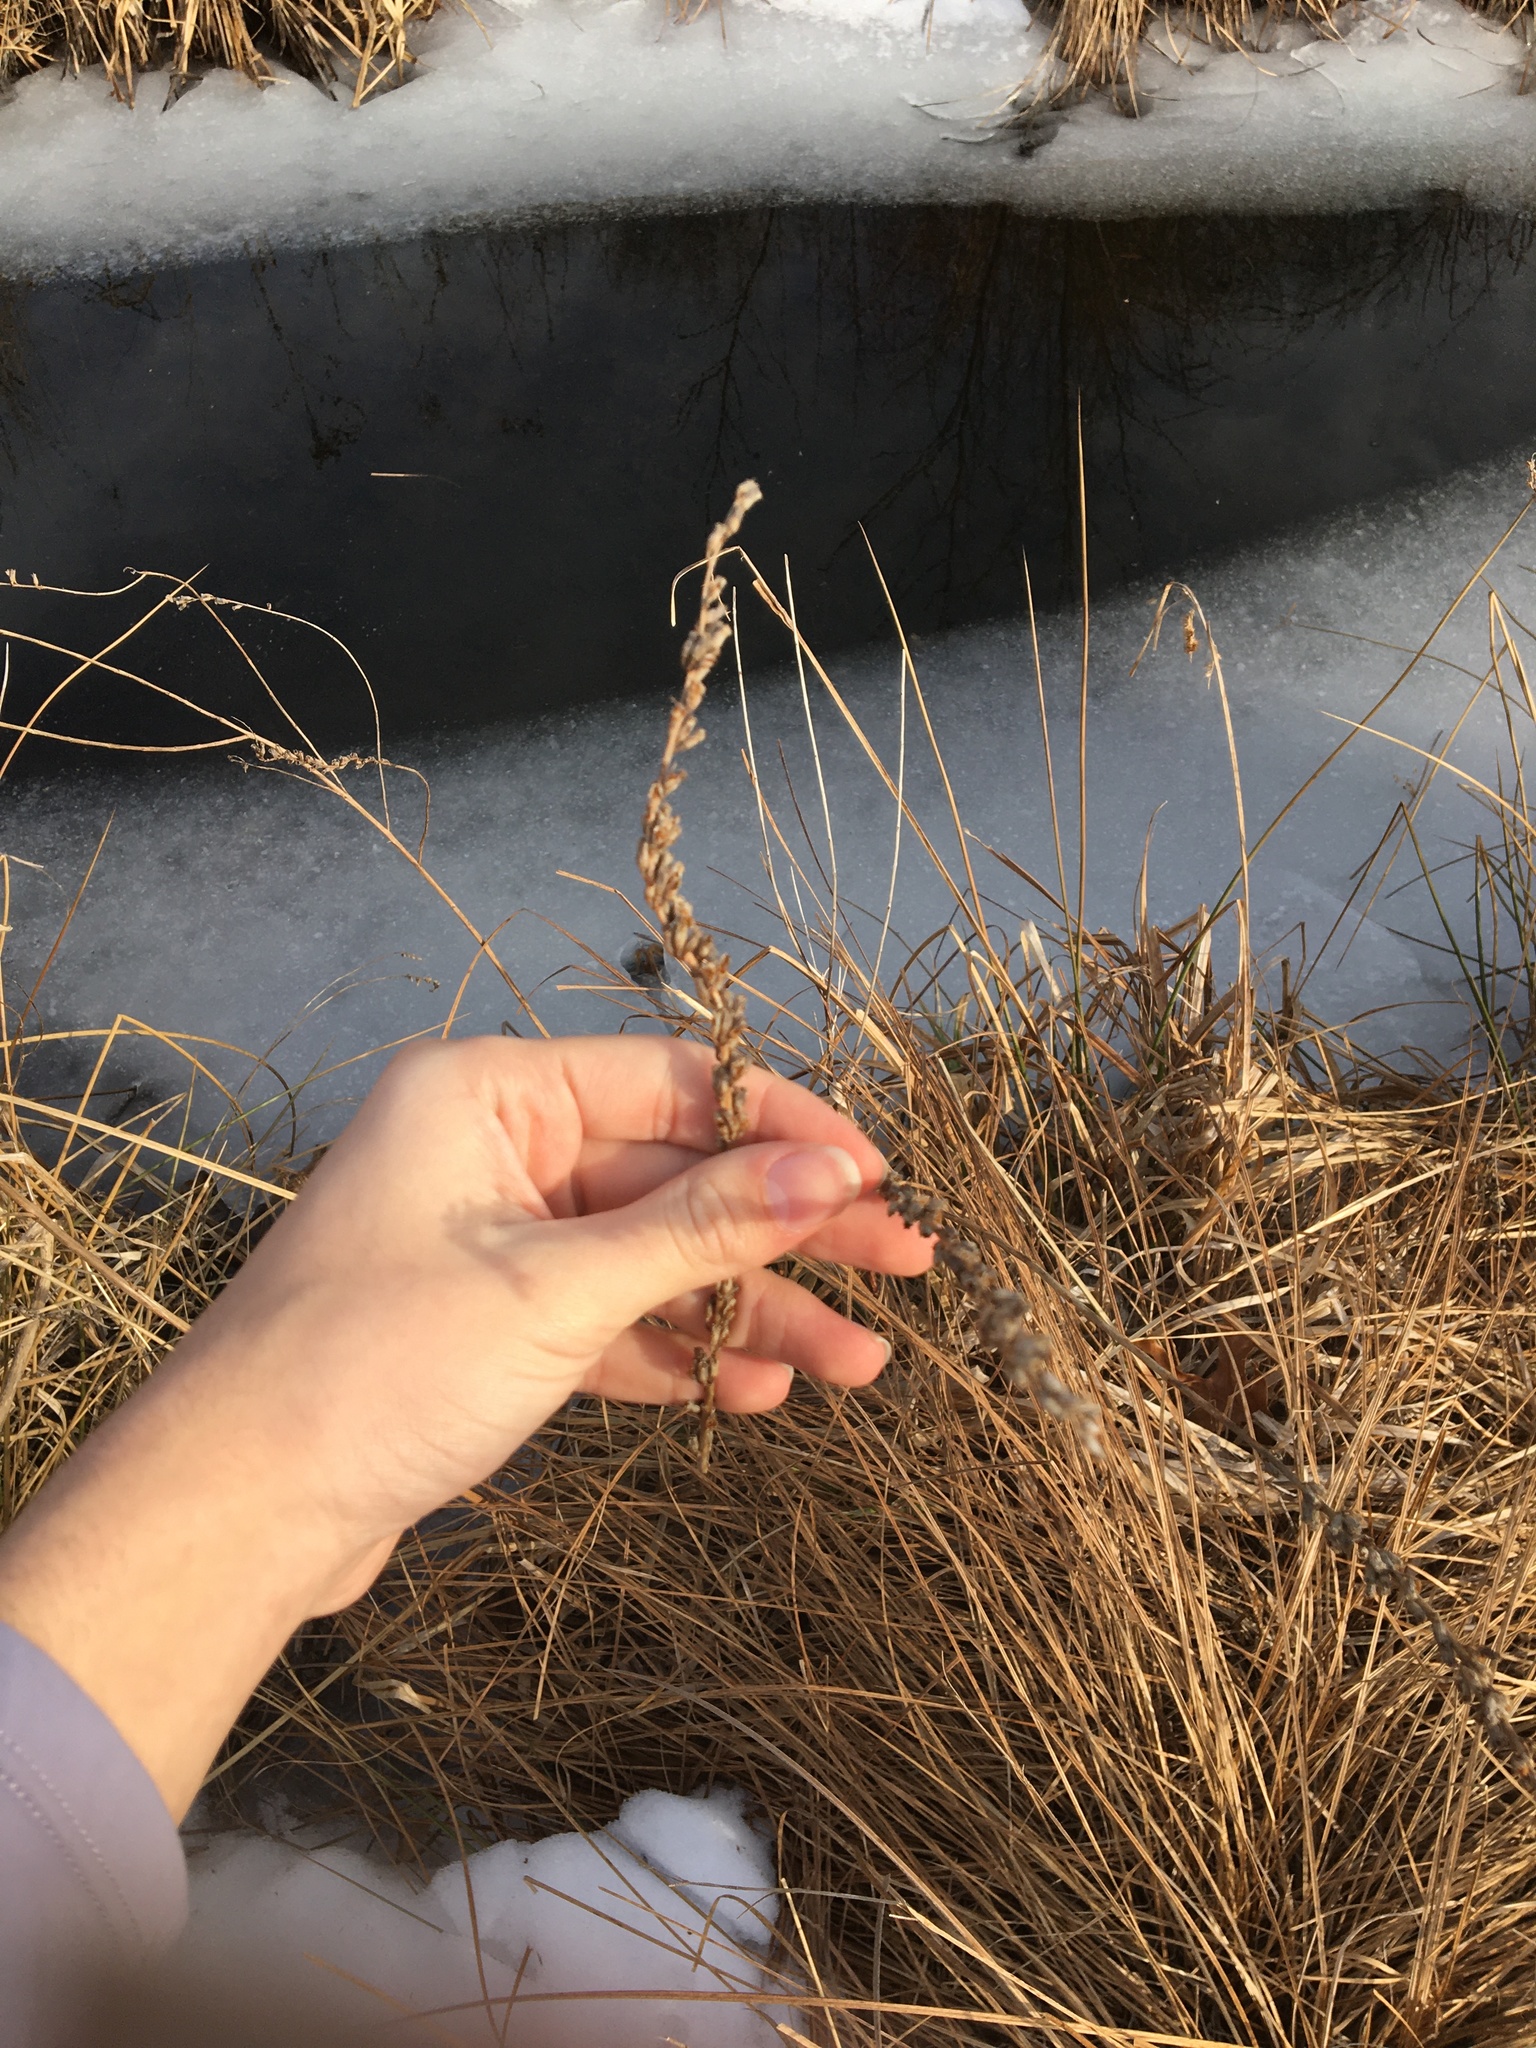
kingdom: Plantae
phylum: Tracheophyta
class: Magnoliopsida
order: Myrtales
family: Lythraceae
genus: Lythrum
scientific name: Lythrum salicaria
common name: Purple loosestrife
